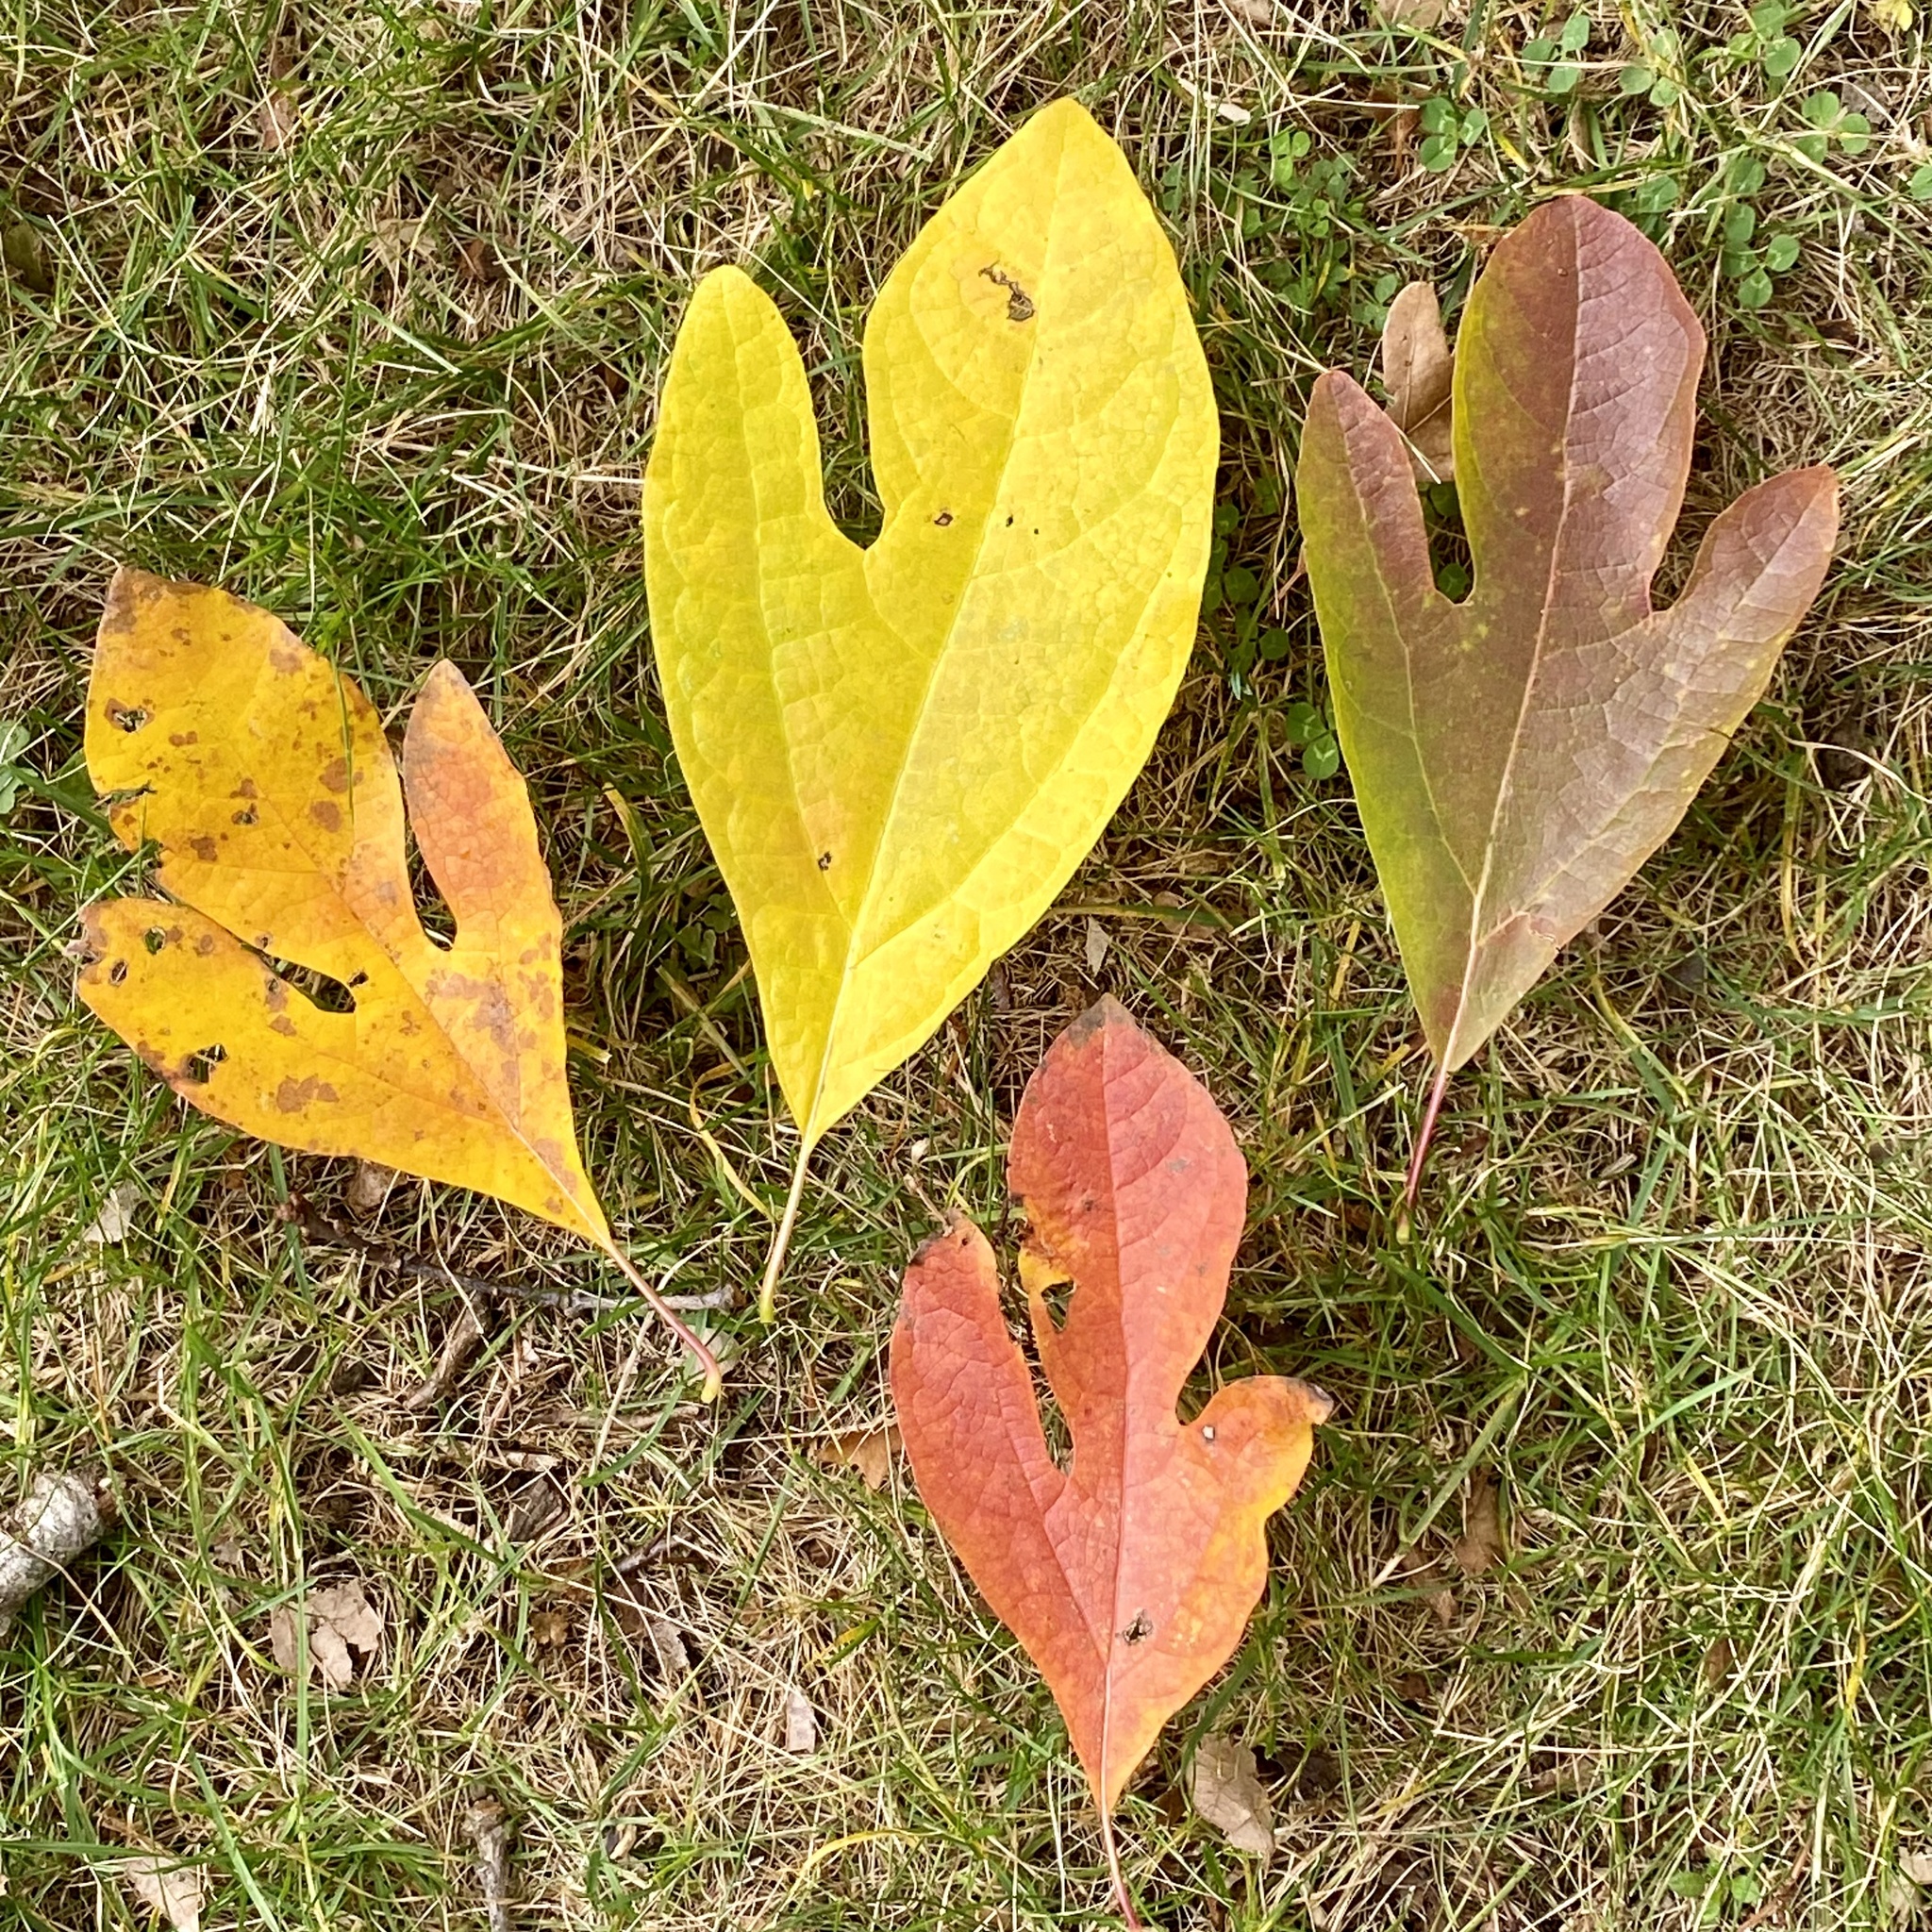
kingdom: Plantae
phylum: Tracheophyta
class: Magnoliopsida
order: Laurales
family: Lauraceae
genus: Sassafras
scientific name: Sassafras albidum
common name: Sassafras
